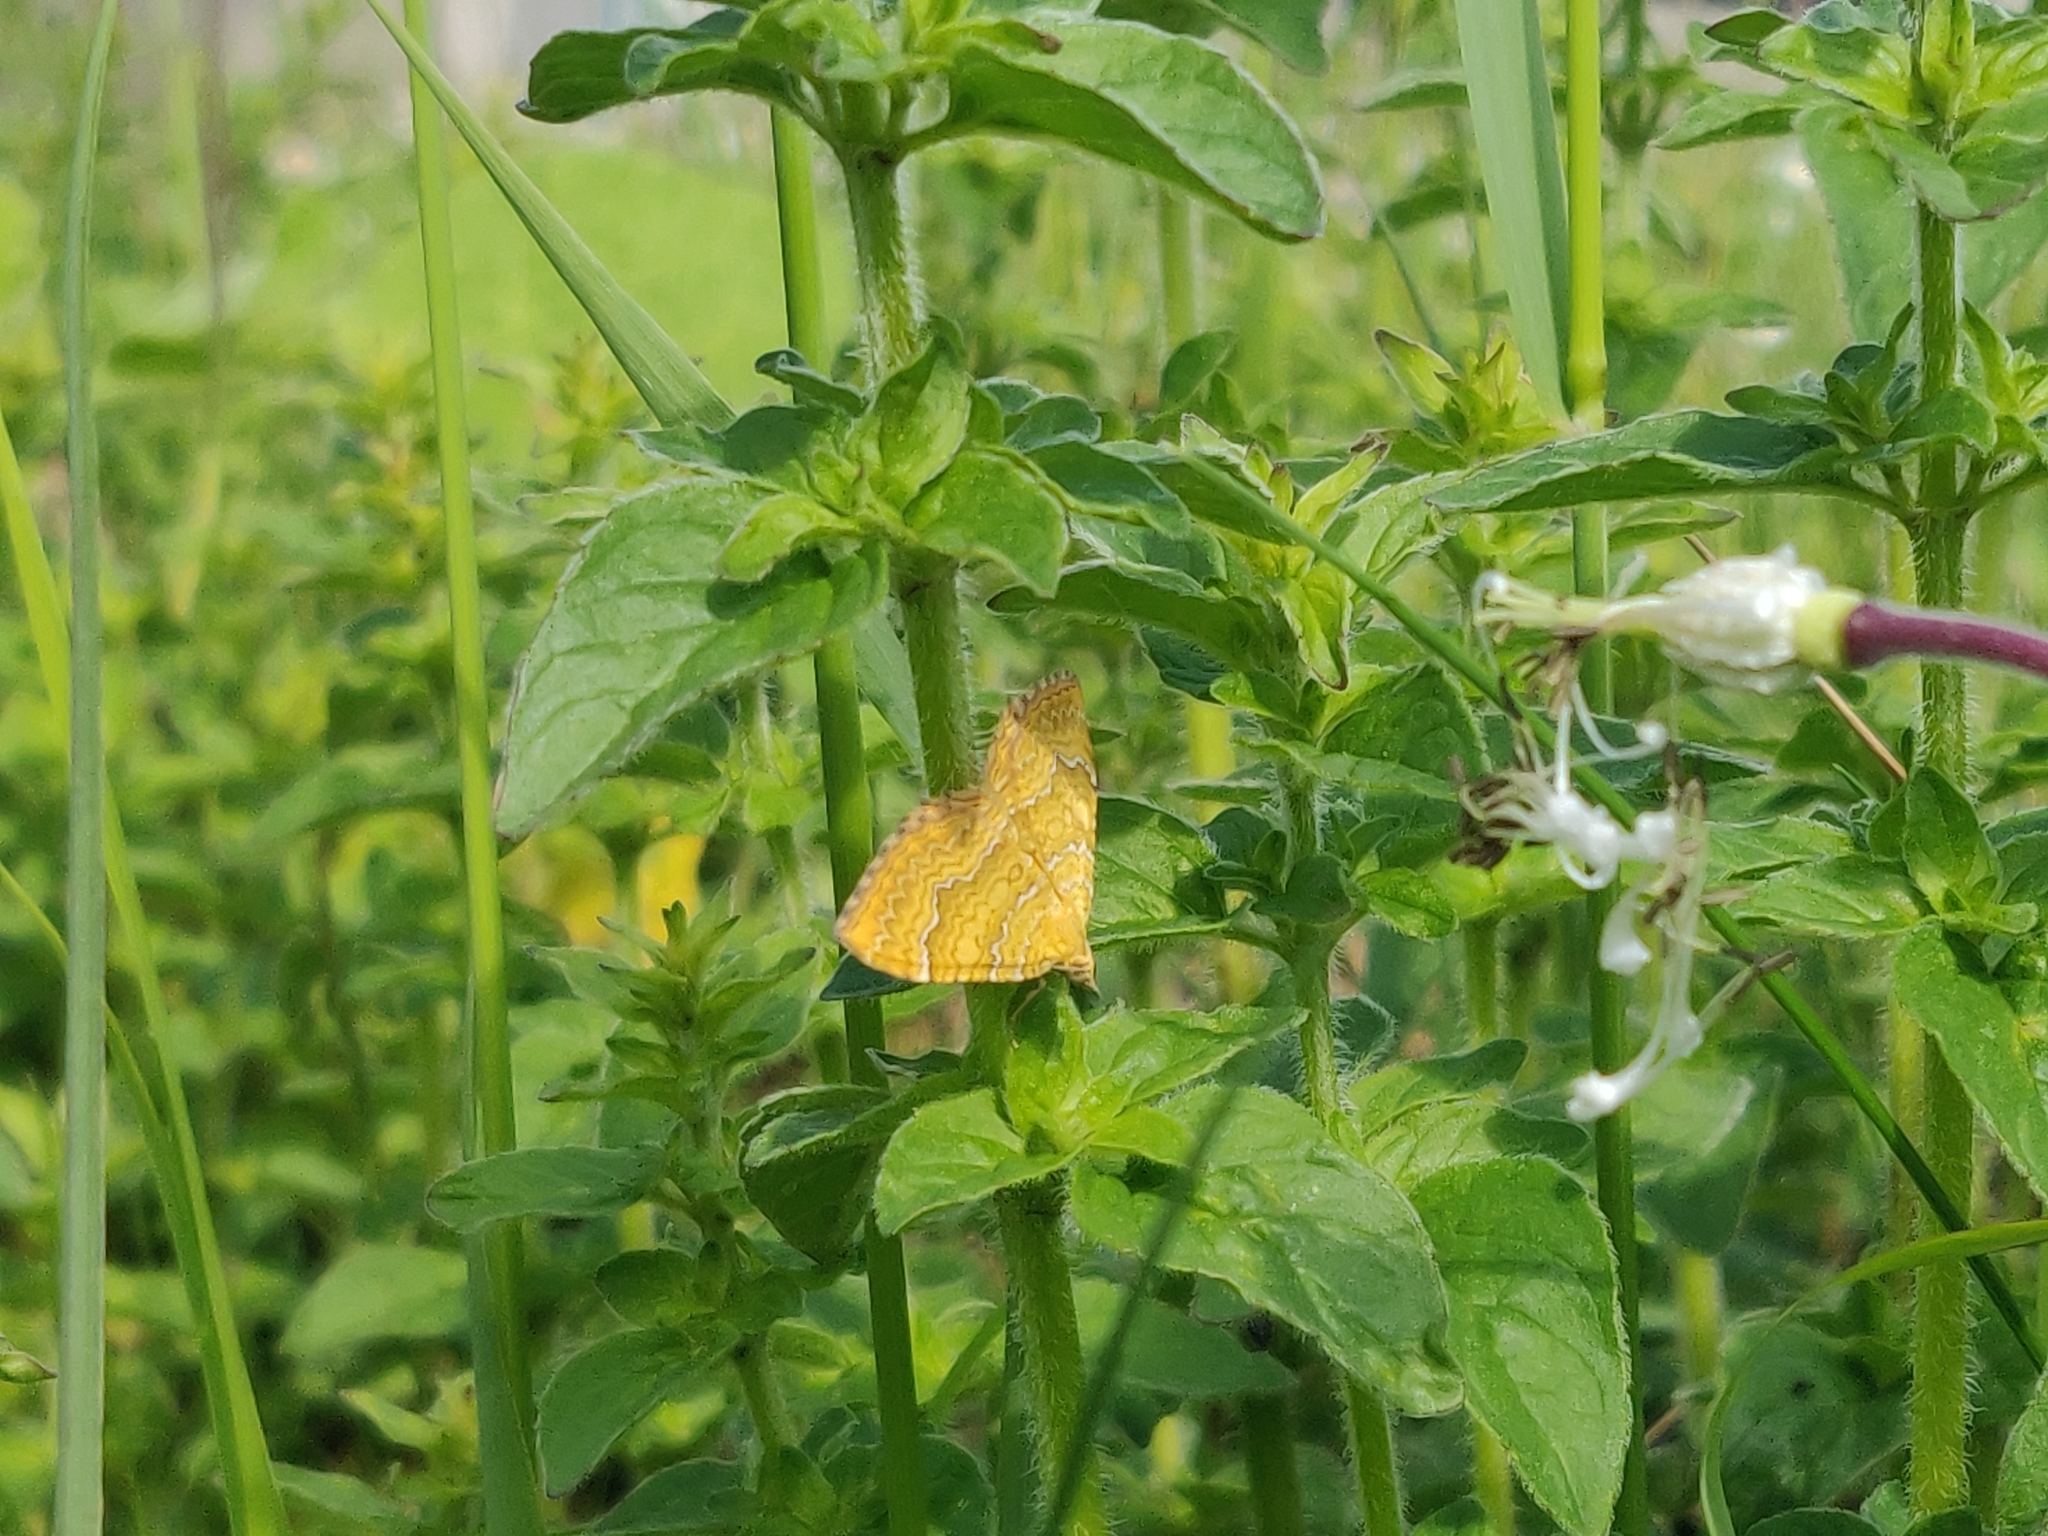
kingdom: Animalia
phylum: Arthropoda
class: Insecta
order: Lepidoptera
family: Geometridae
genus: Camptogramma
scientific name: Camptogramma bilineata
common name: Yellow shell
